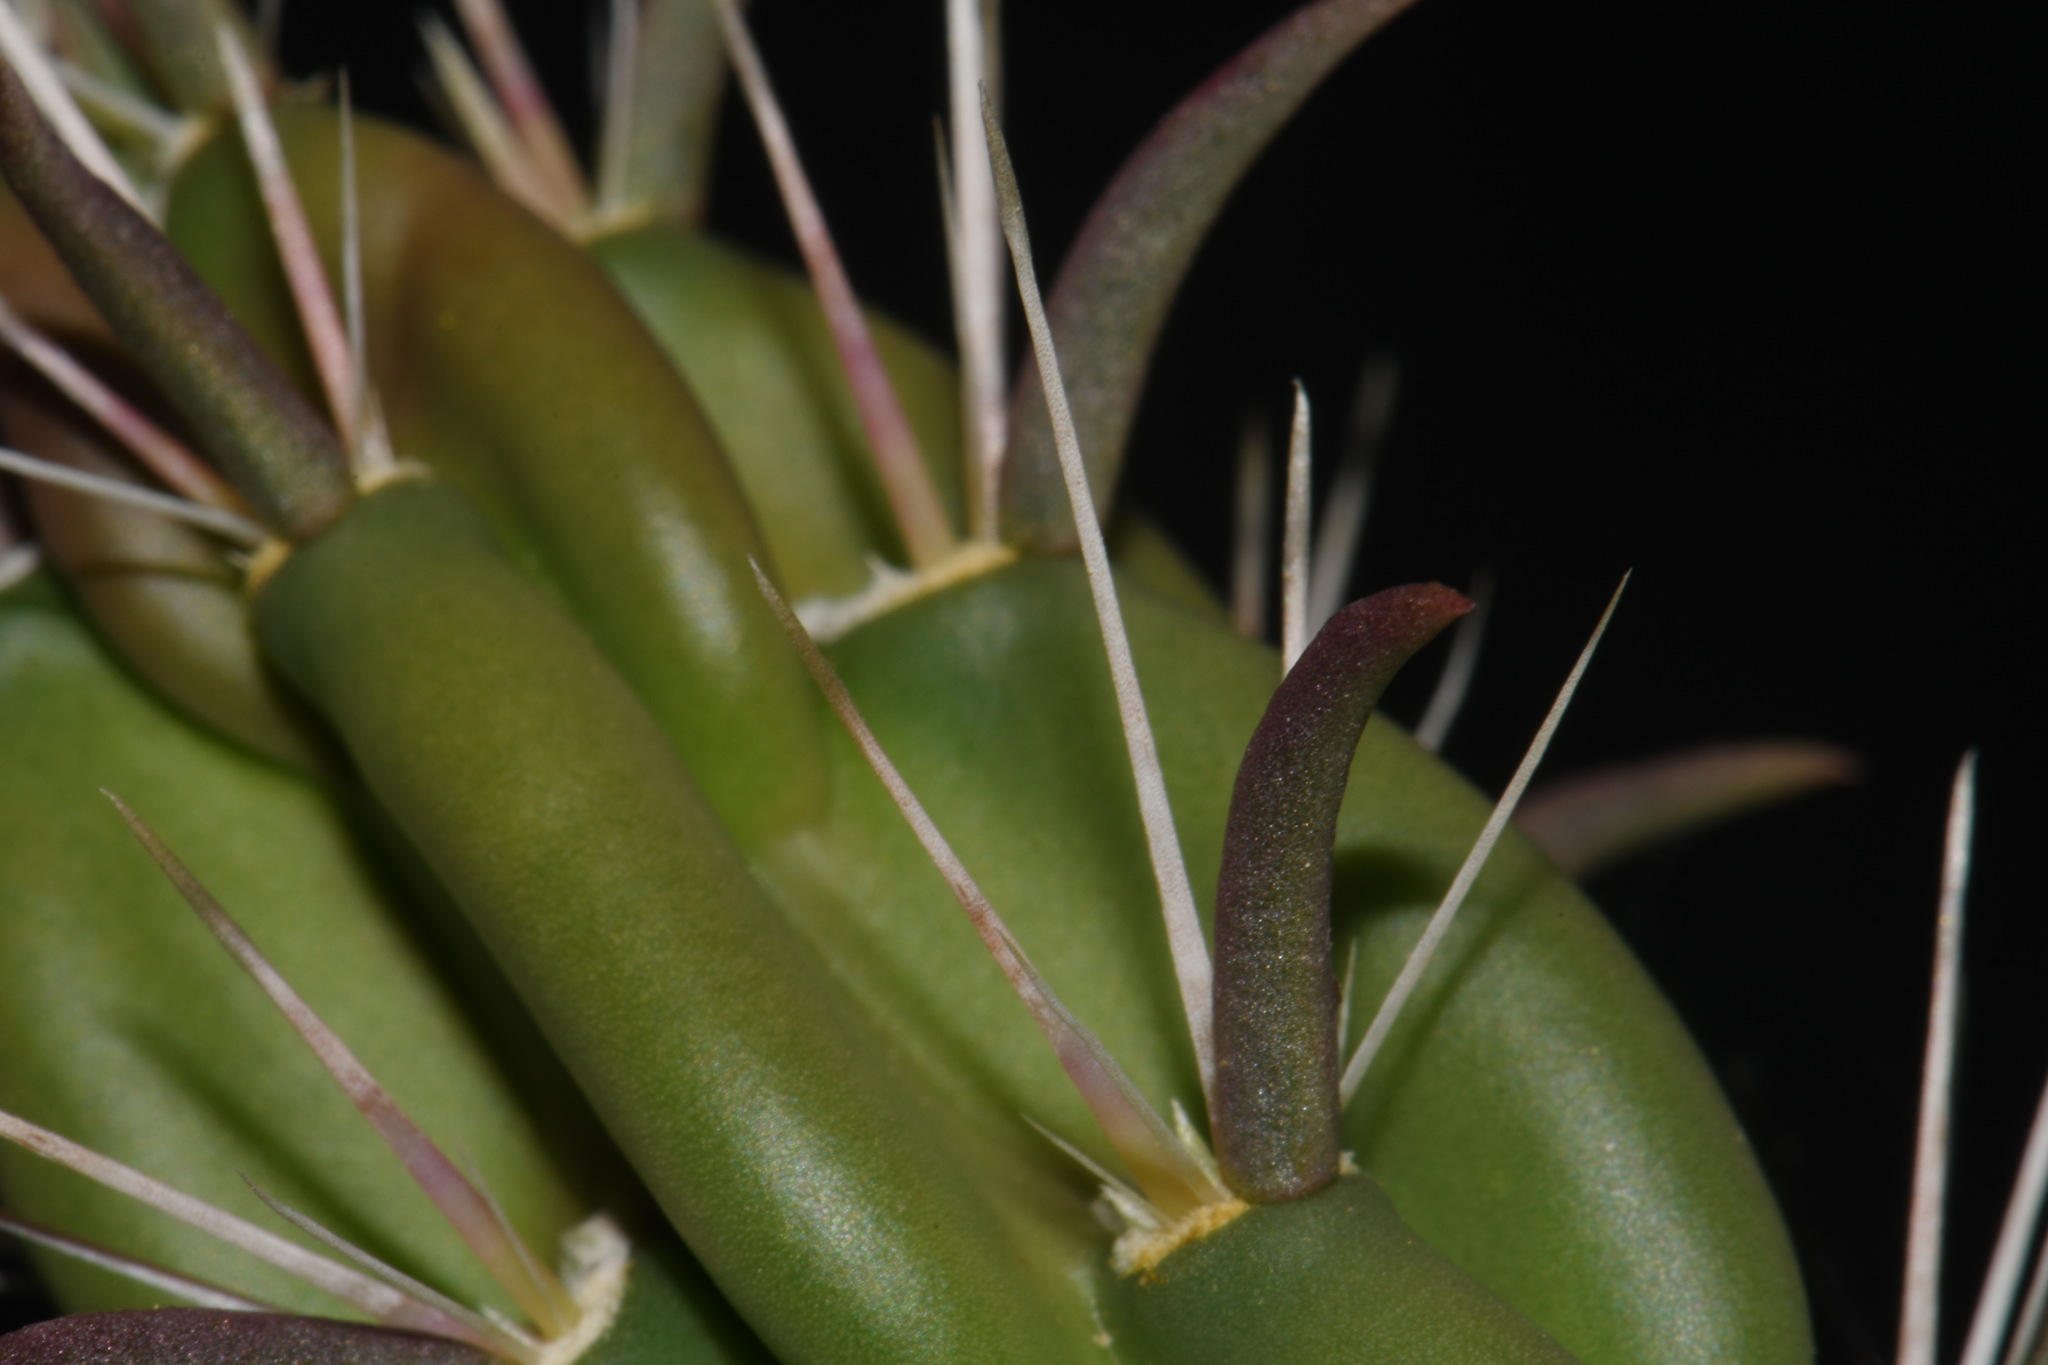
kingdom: Plantae
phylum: Tracheophyta
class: Magnoliopsida
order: Caryophyllales
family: Cactaceae
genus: Cylindropuntia
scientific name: Cylindropuntia imbricata
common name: Candelabrum cactus
